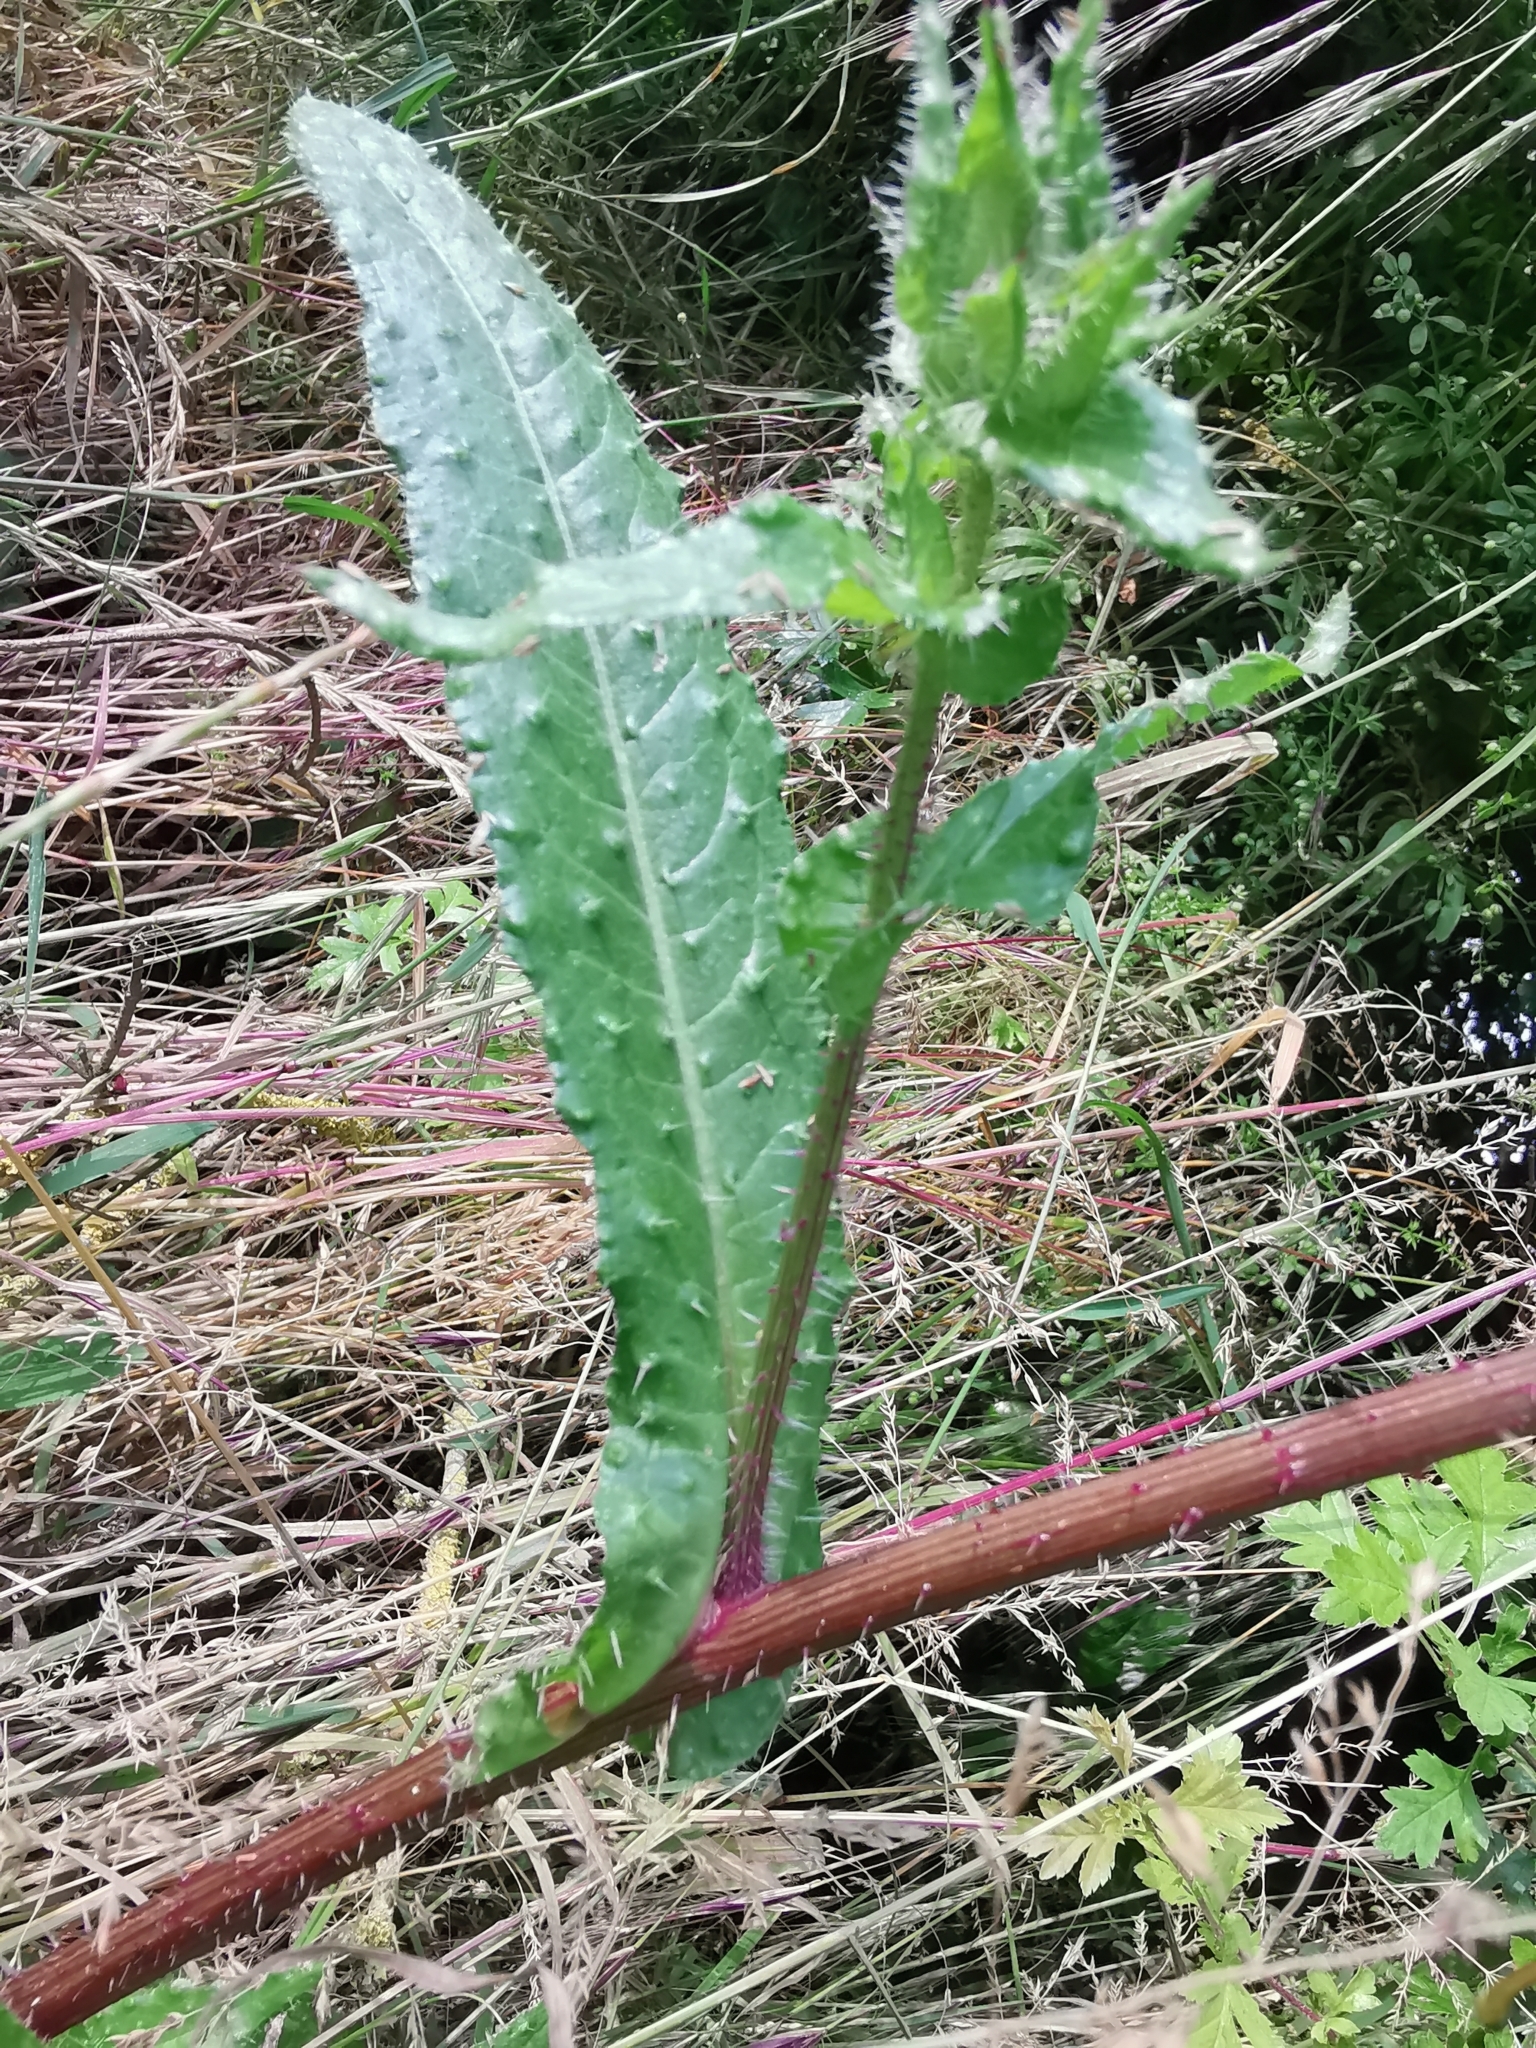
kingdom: Plantae
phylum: Tracheophyta
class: Magnoliopsida
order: Asterales
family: Asteraceae
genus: Helminthotheca
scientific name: Helminthotheca echioides
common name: Ox-tongue
